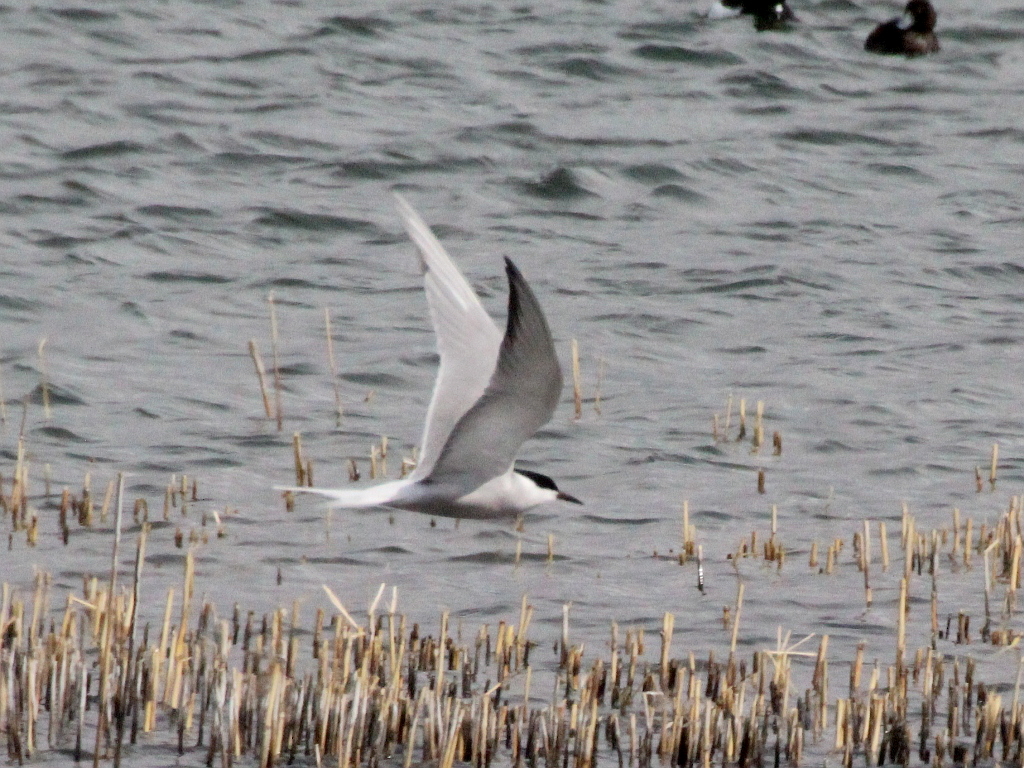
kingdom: Animalia
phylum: Chordata
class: Aves
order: Charadriiformes
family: Laridae
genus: Sterna
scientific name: Sterna hirundo
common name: Common tern
